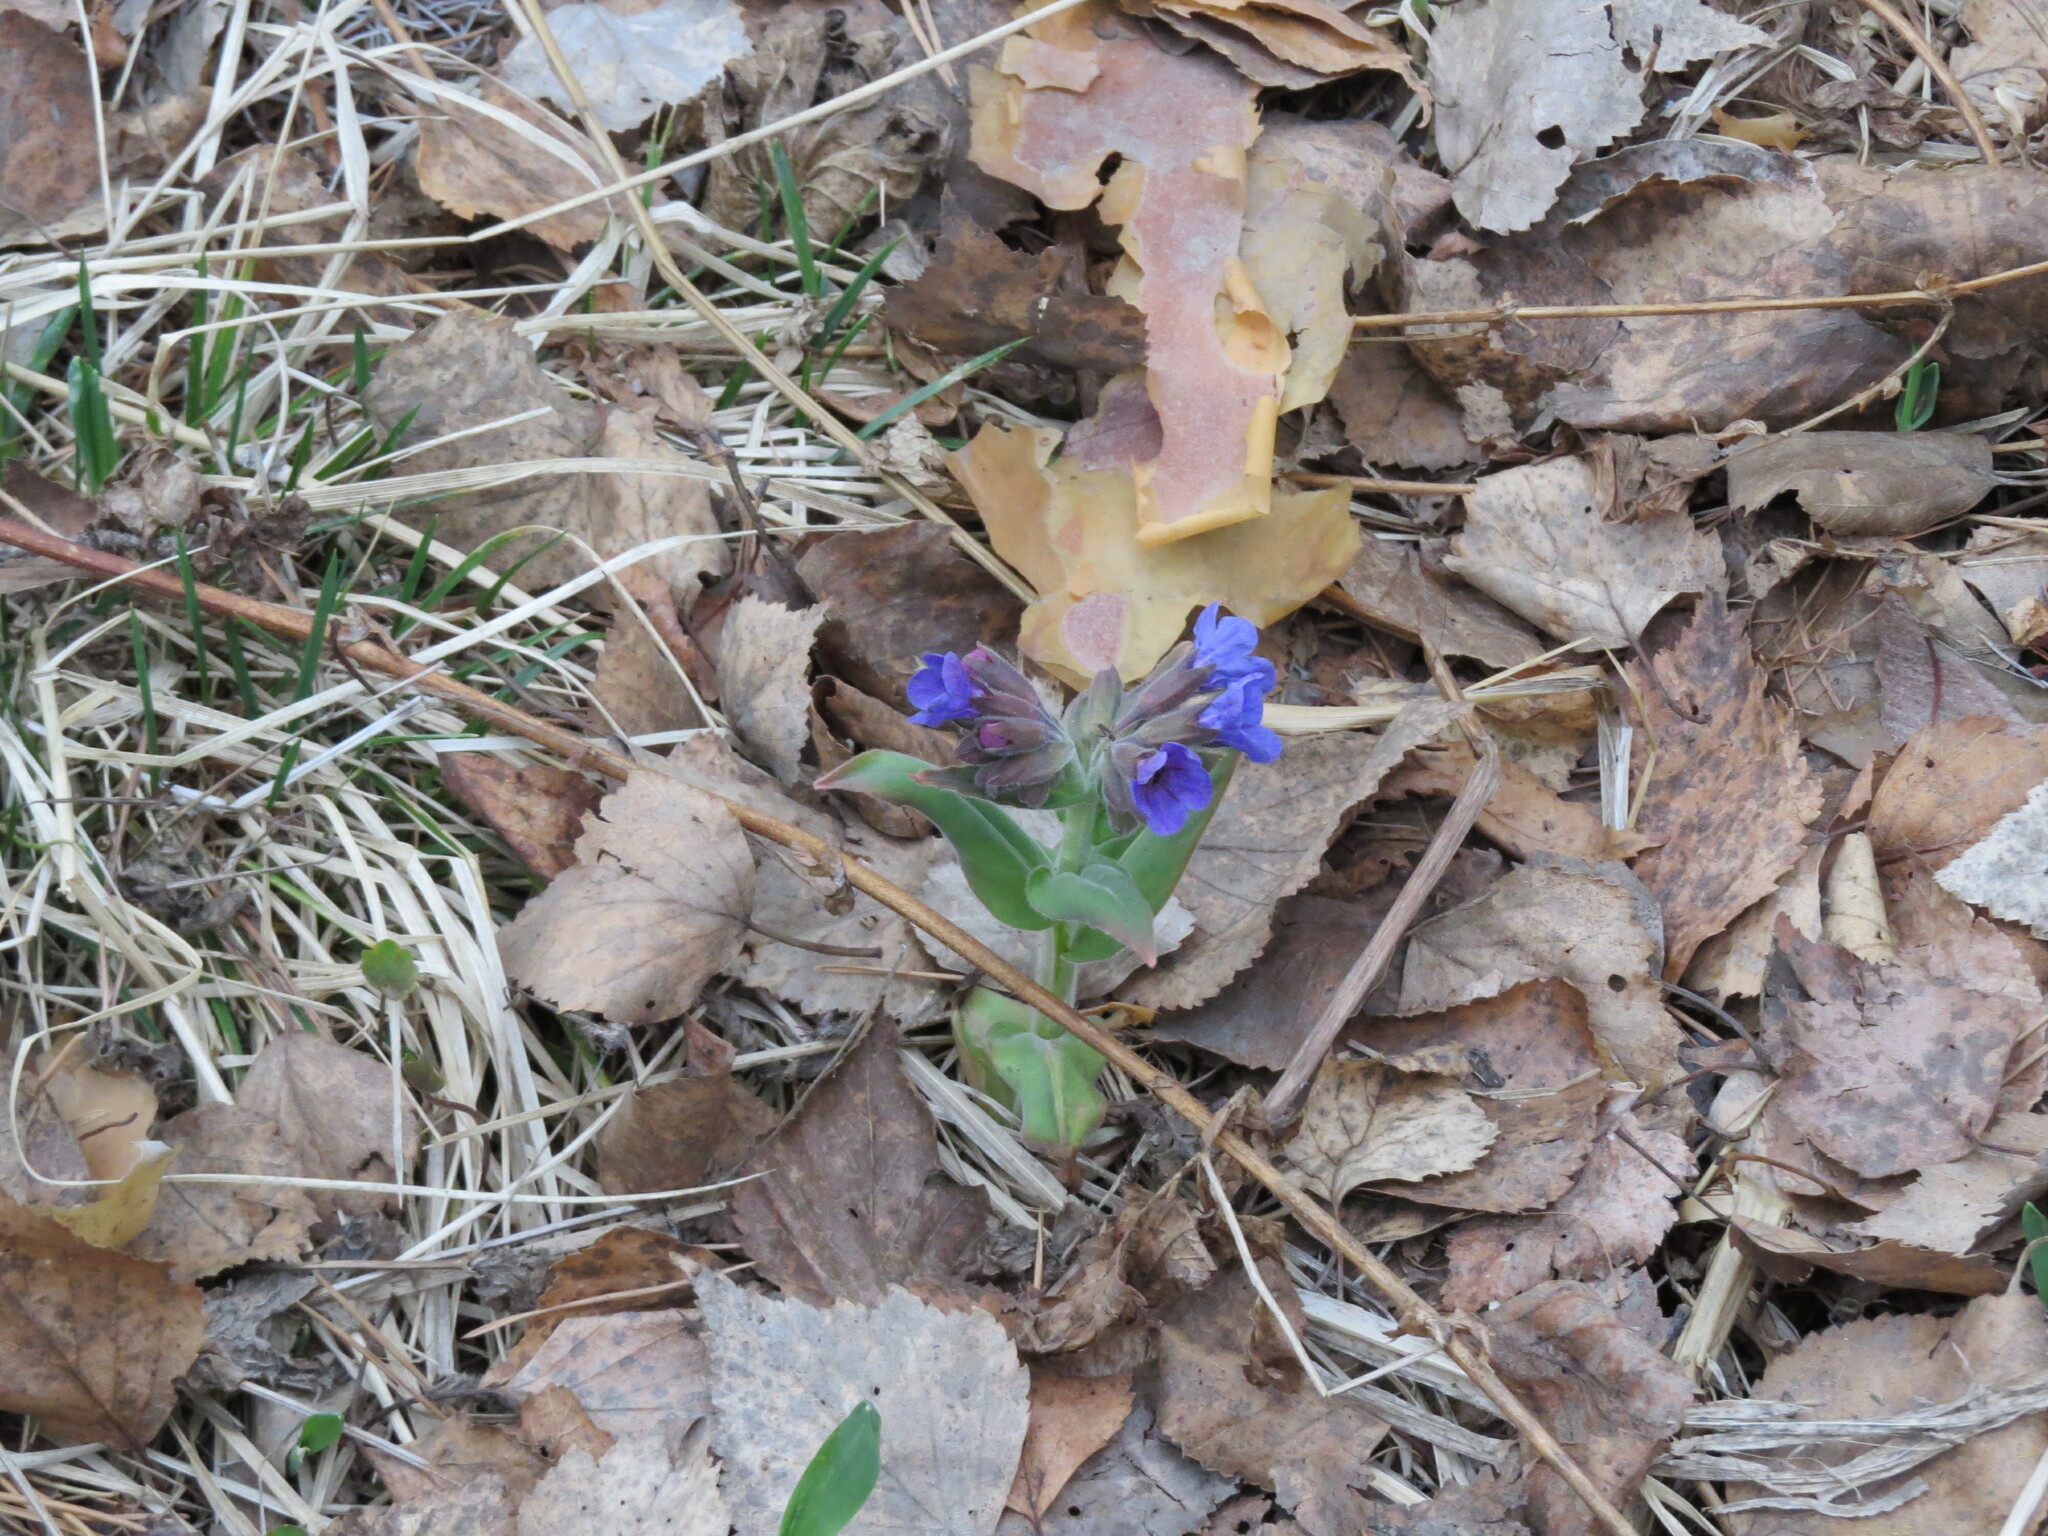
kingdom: Plantae
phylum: Tracheophyta
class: Magnoliopsida
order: Boraginales
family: Boraginaceae
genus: Pulmonaria
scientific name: Pulmonaria mollis
